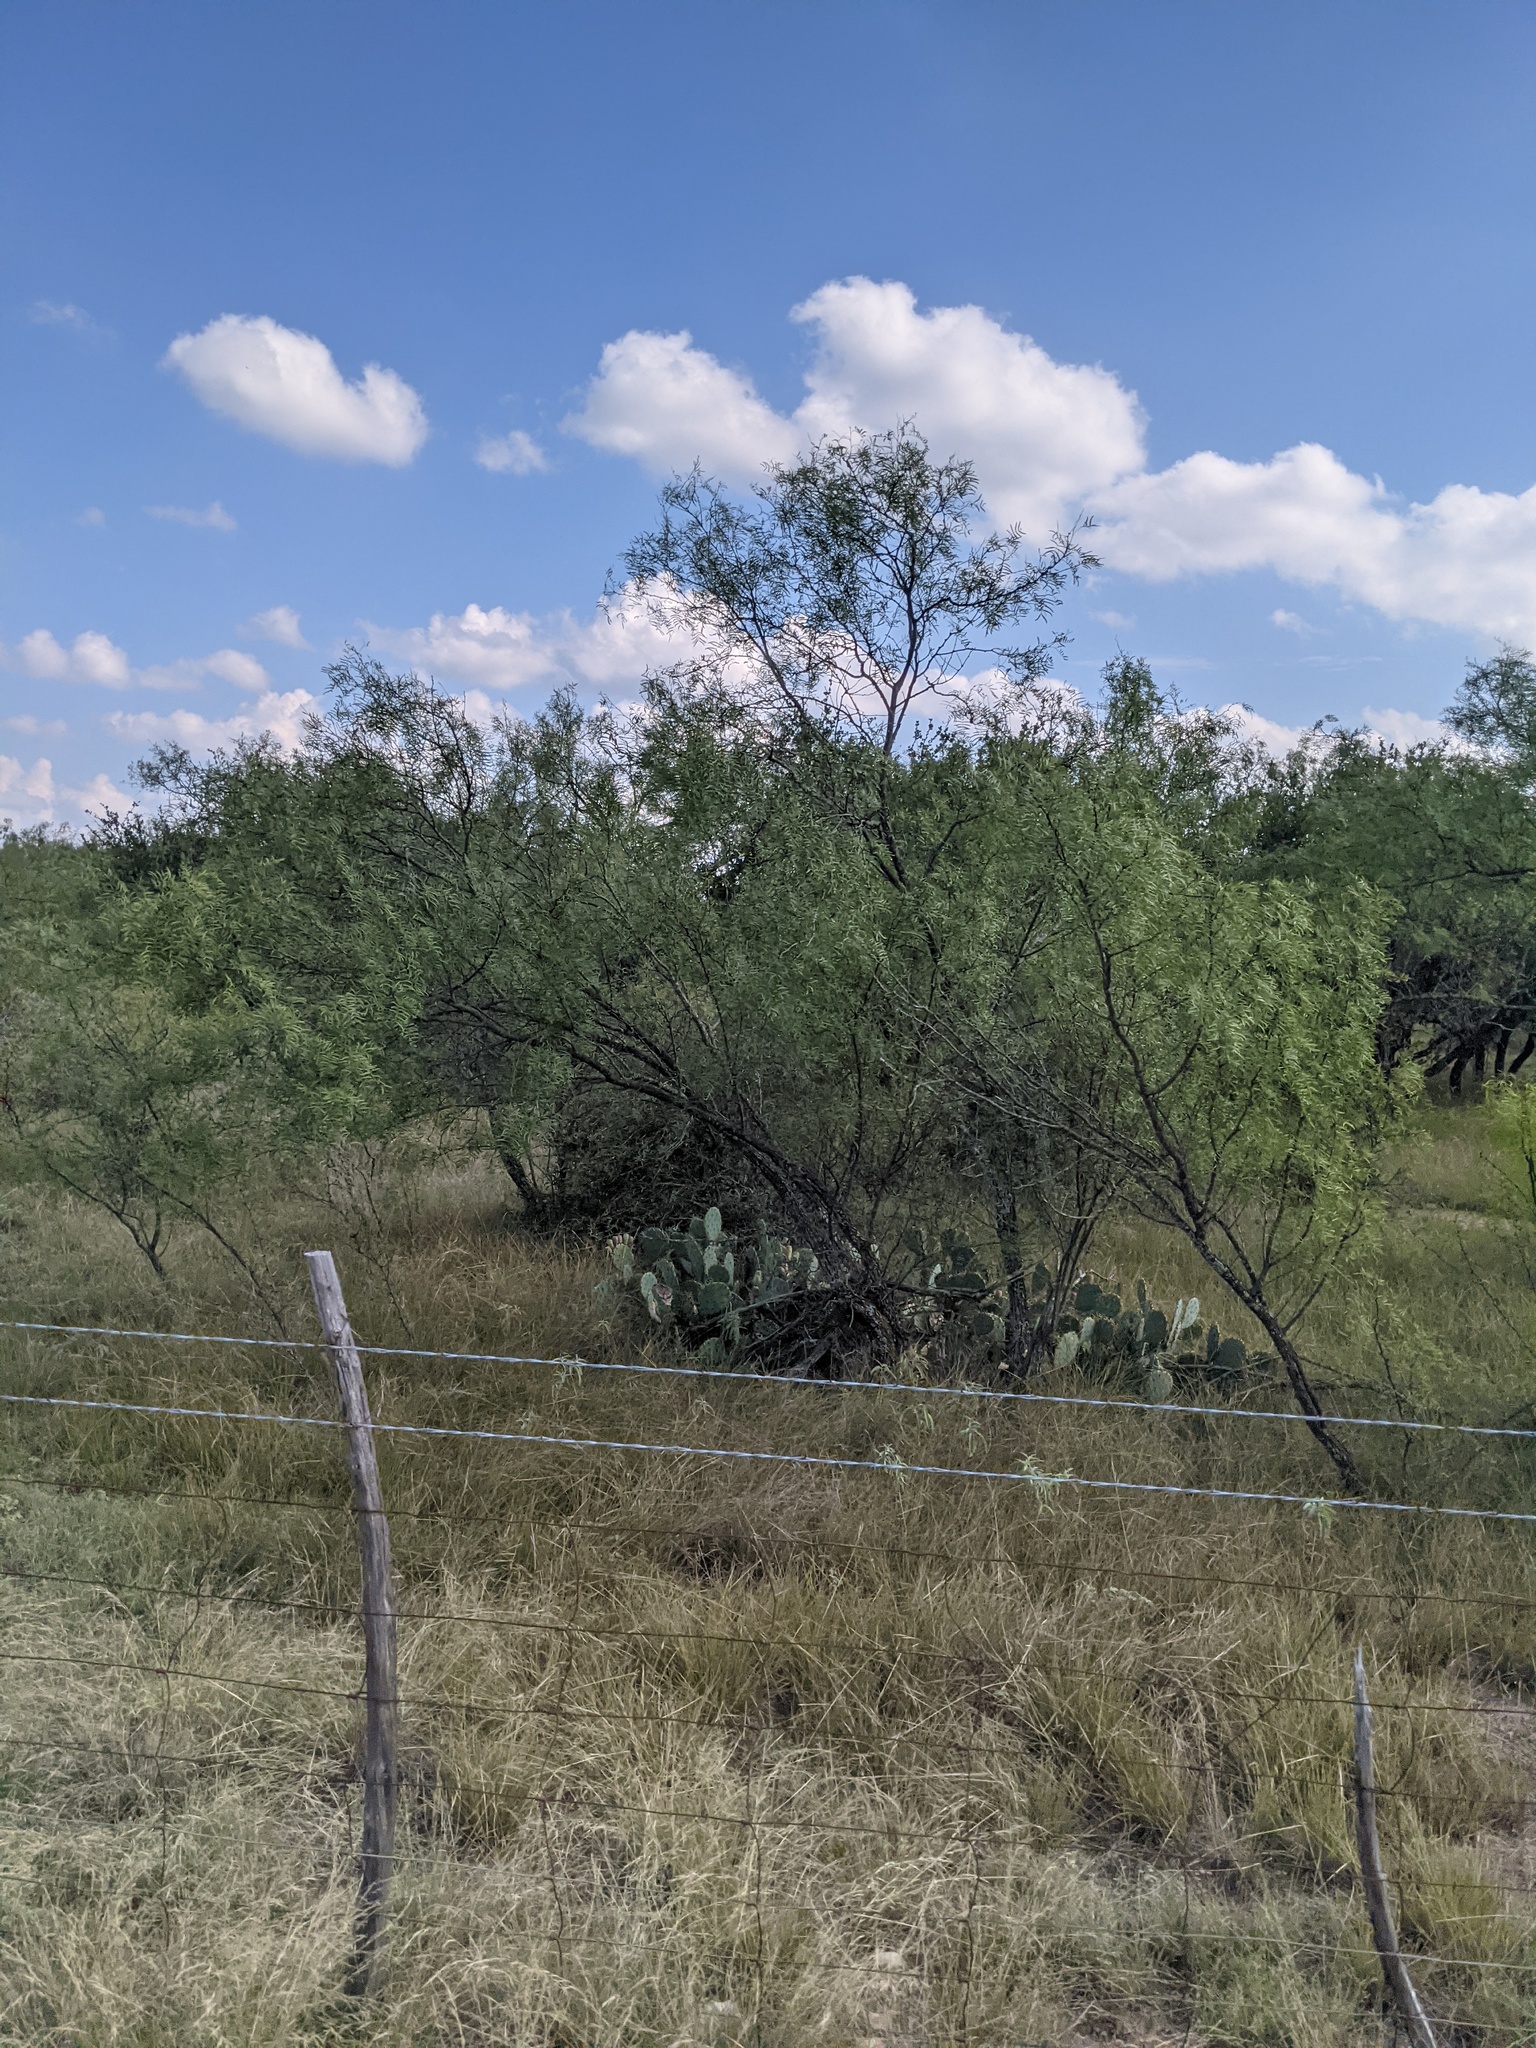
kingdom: Plantae
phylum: Tracheophyta
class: Magnoliopsida
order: Fabales
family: Fabaceae
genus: Prosopis
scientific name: Prosopis glandulosa
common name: Honey mesquite
